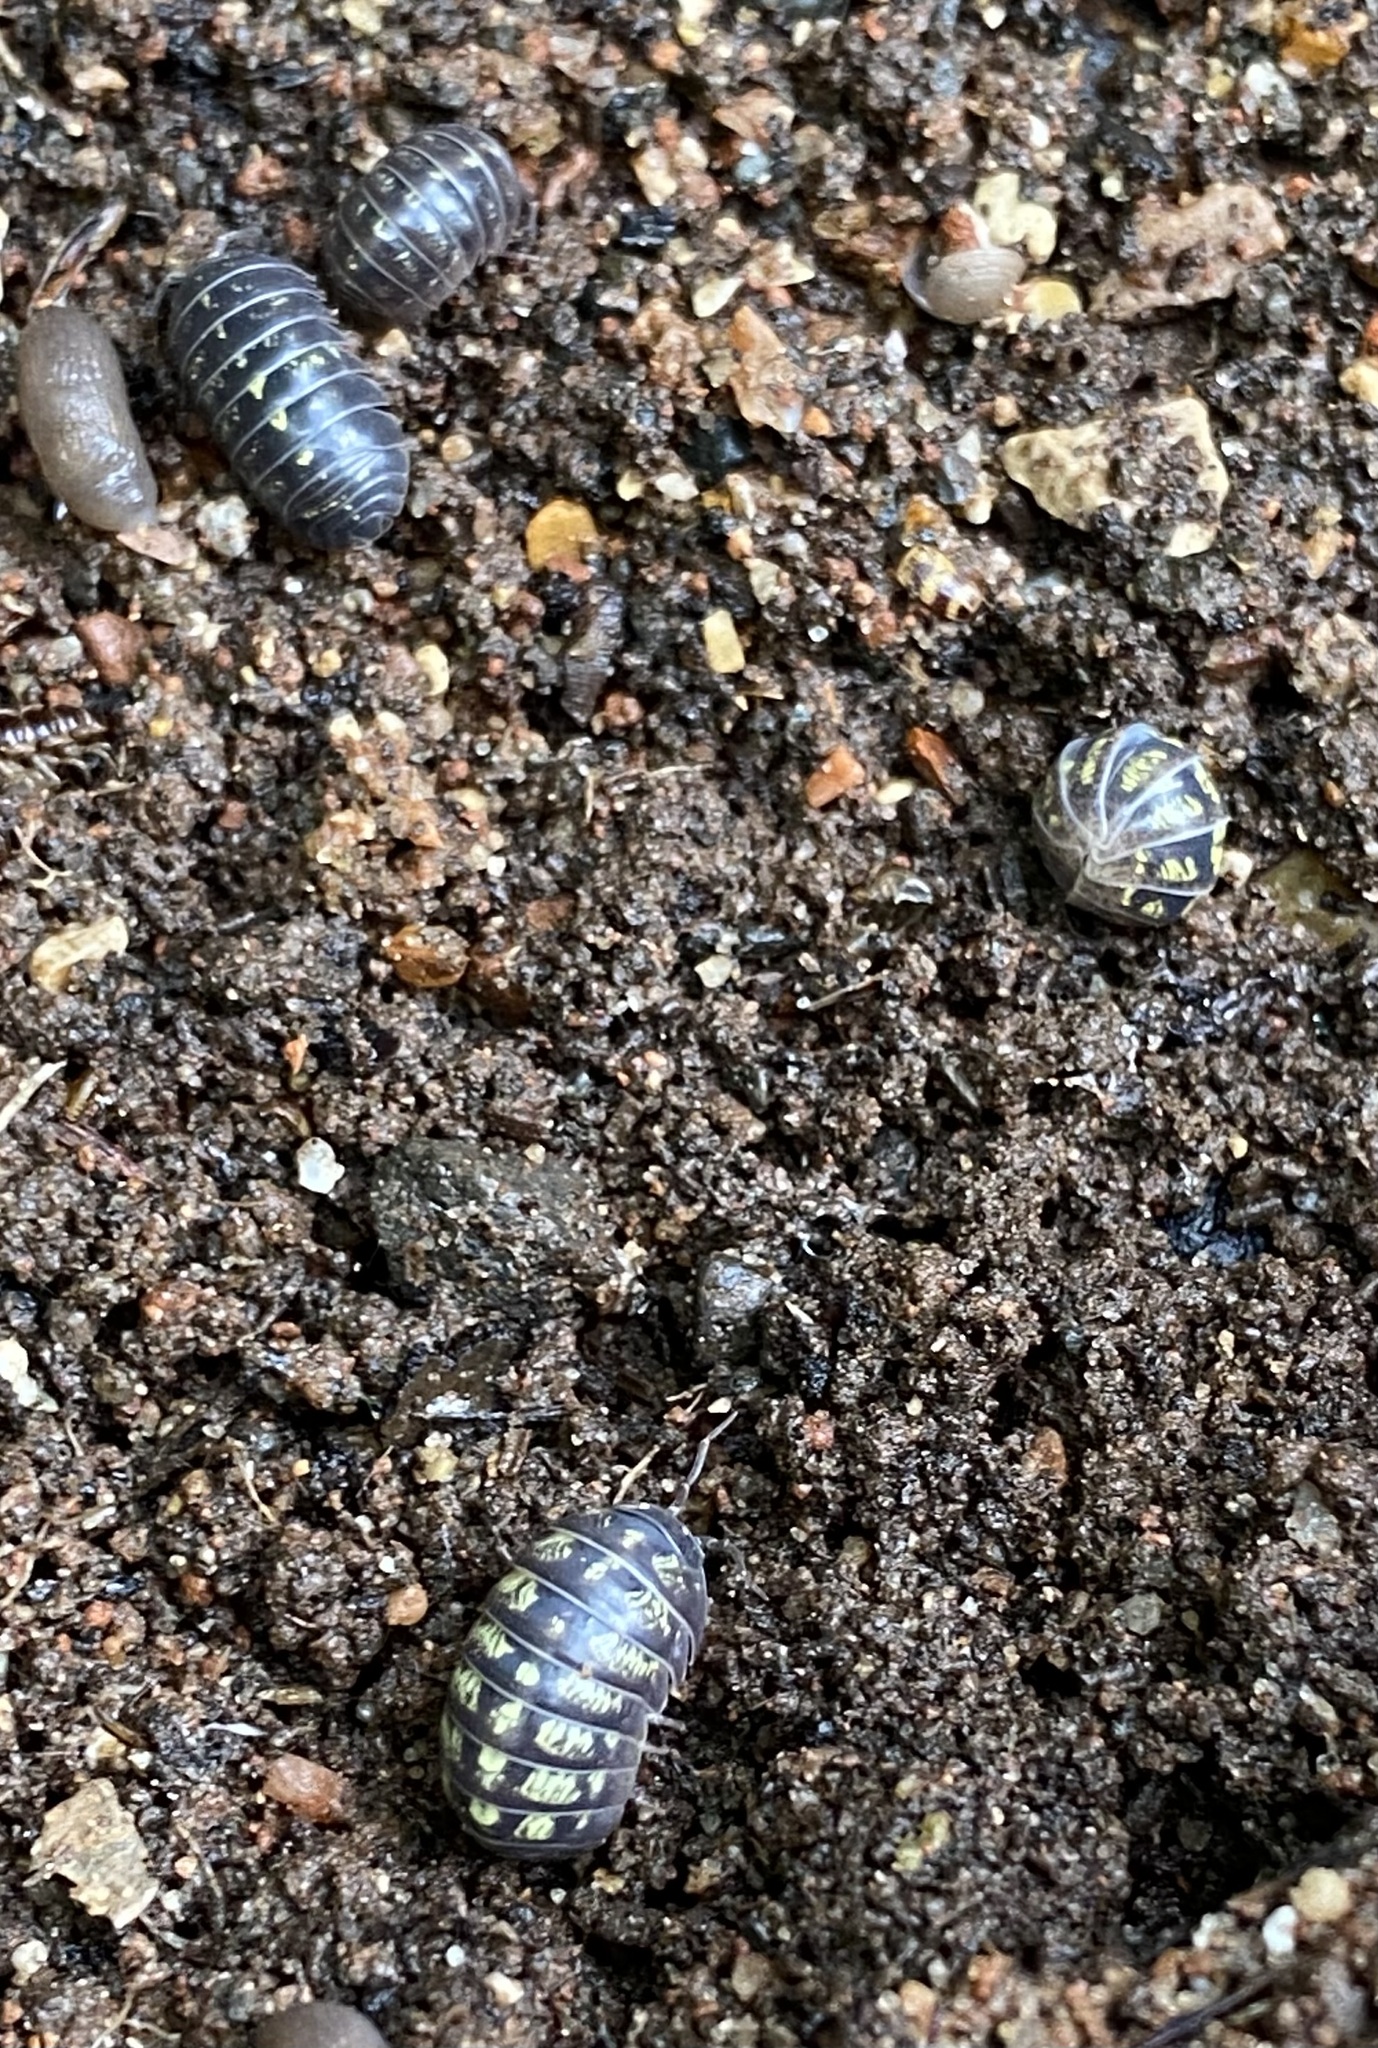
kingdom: Animalia
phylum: Arthropoda
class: Malacostraca
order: Isopoda
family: Armadillidiidae
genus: Armadillidium
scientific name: Armadillidium vulgare
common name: Common pill woodlouse
